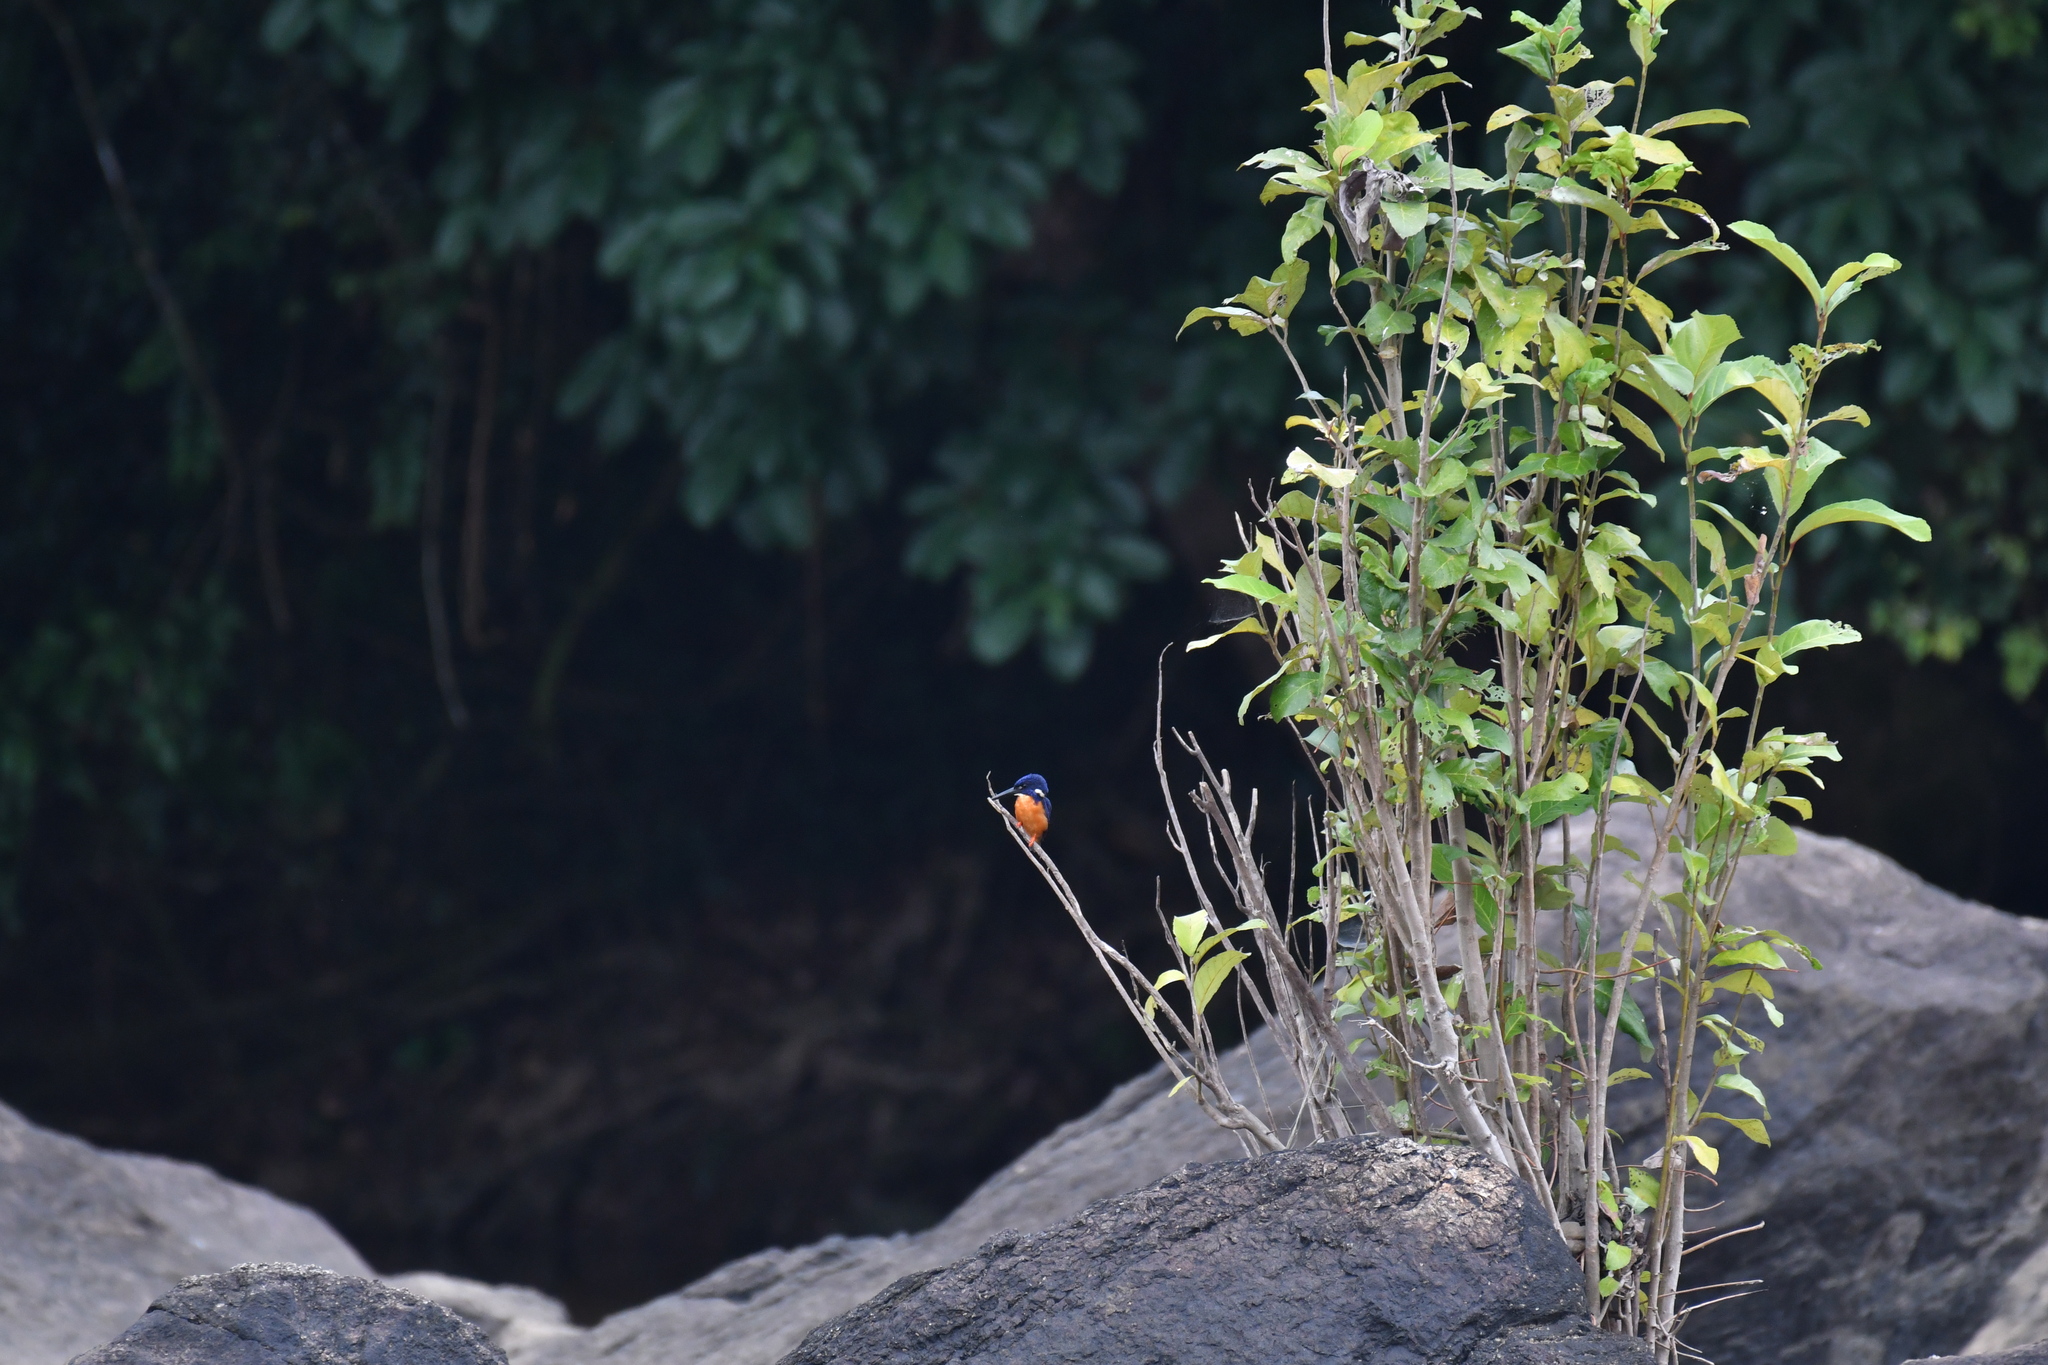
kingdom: Animalia
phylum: Chordata
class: Aves
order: Coraciiformes
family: Alcedinidae
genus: Alcedo
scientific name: Alcedo quadribrachys
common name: Shining-blue kingfisher
